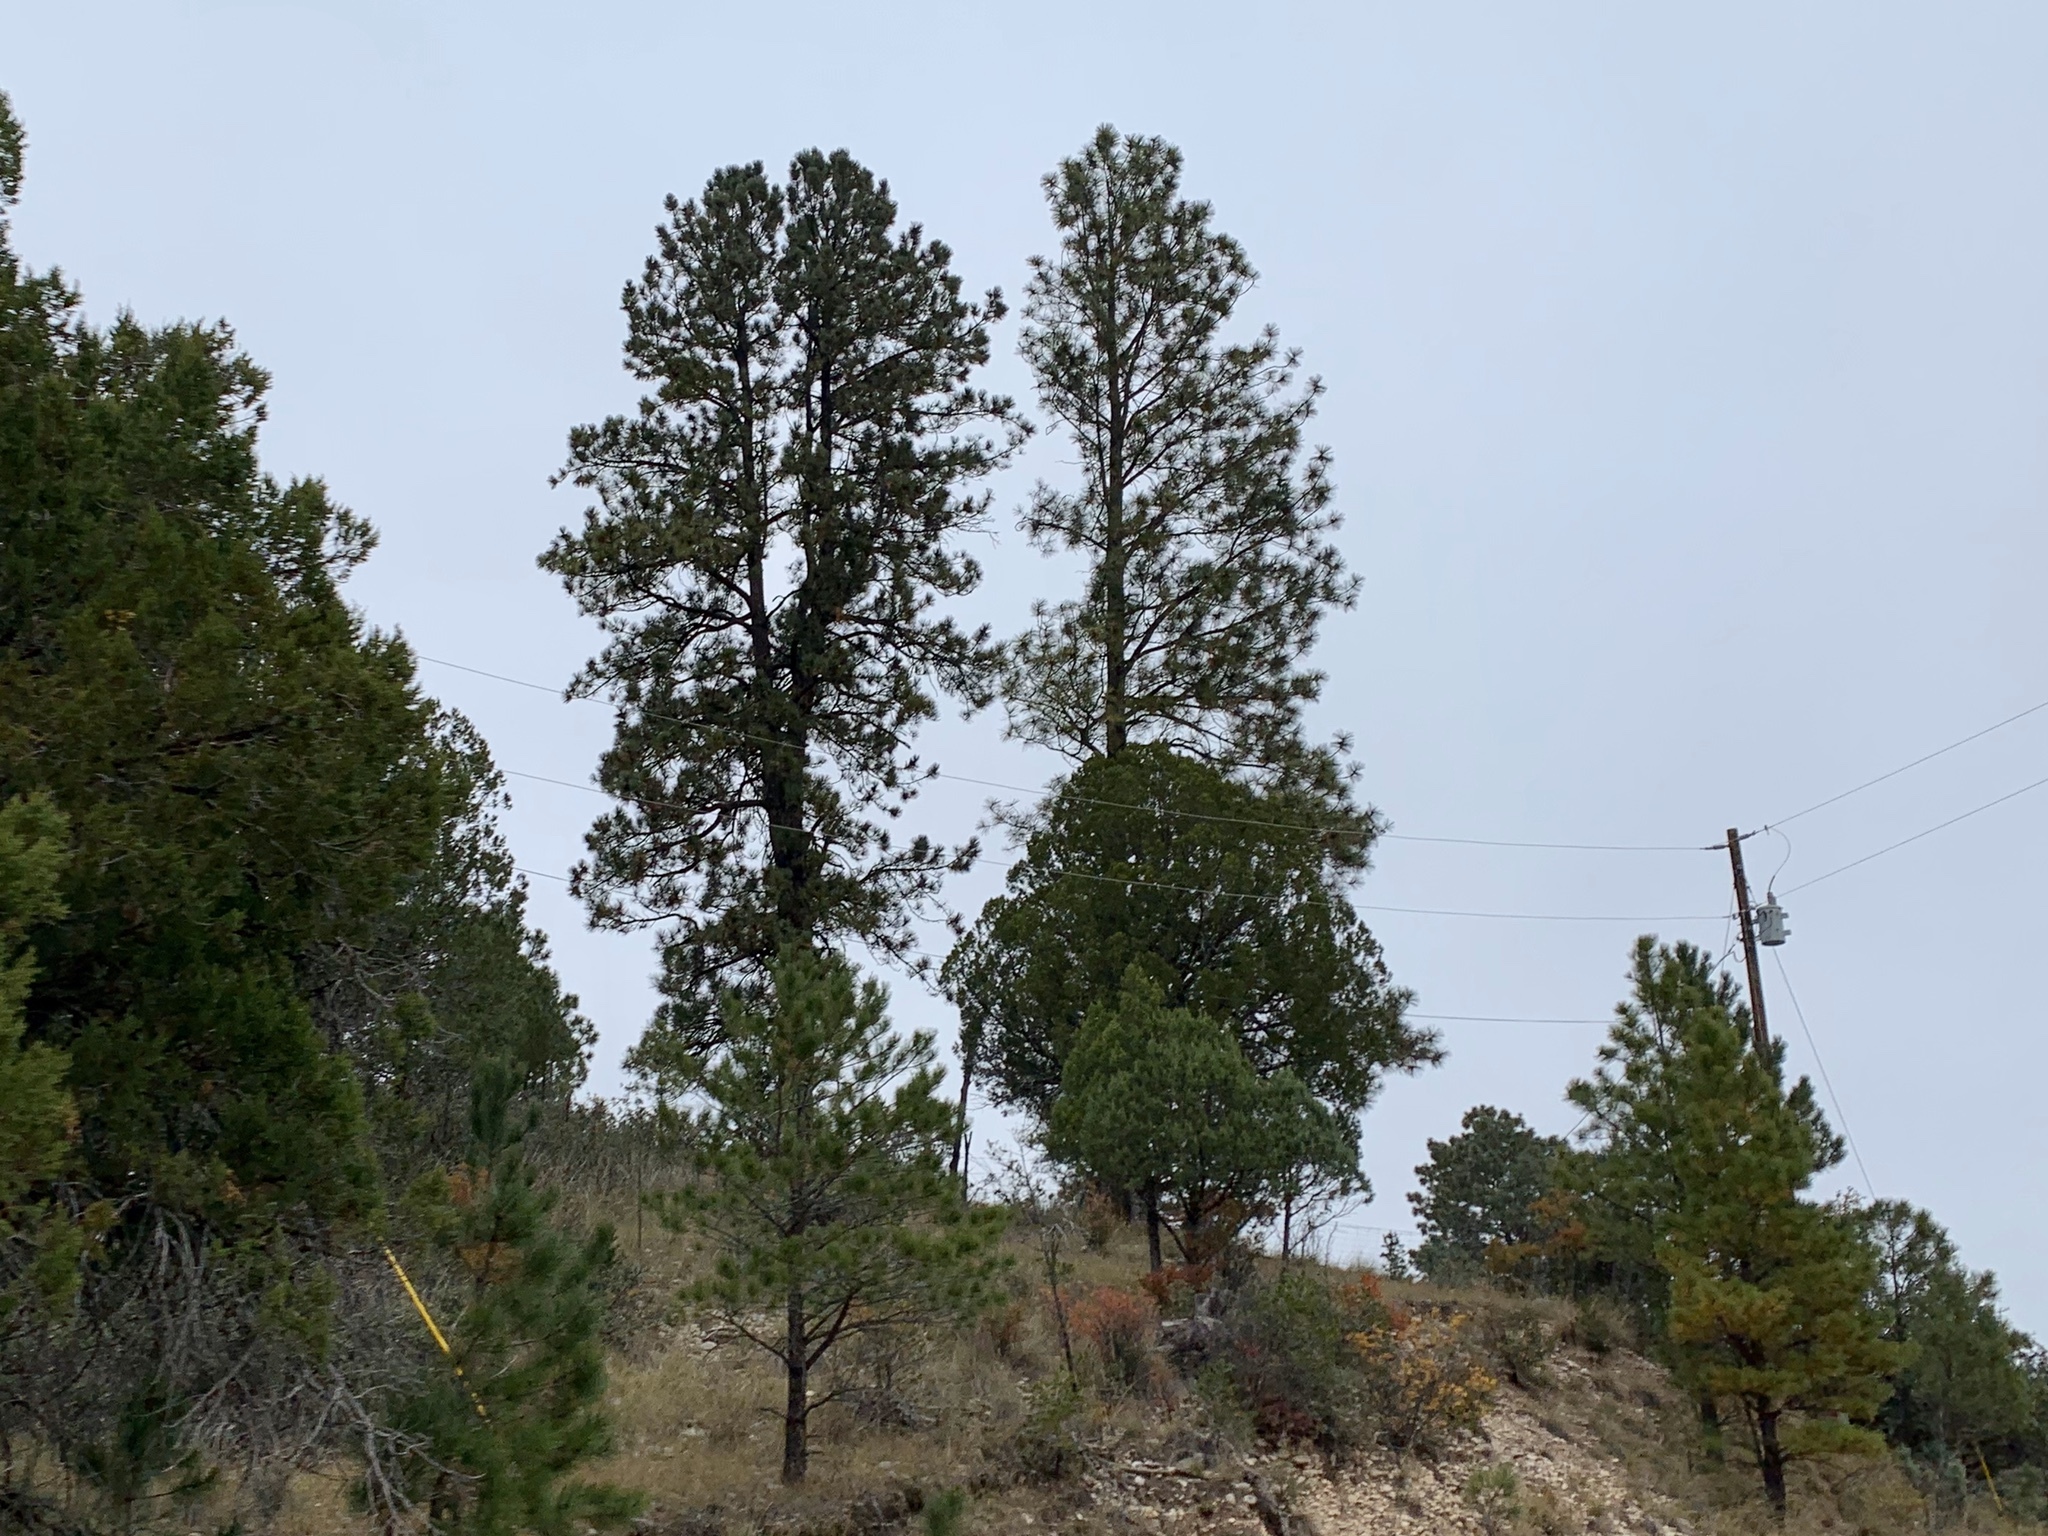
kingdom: Plantae
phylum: Tracheophyta
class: Pinopsida
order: Pinales
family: Pinaceae
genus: Pinus
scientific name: Pinus ponderosa
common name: Western yellow-pine
